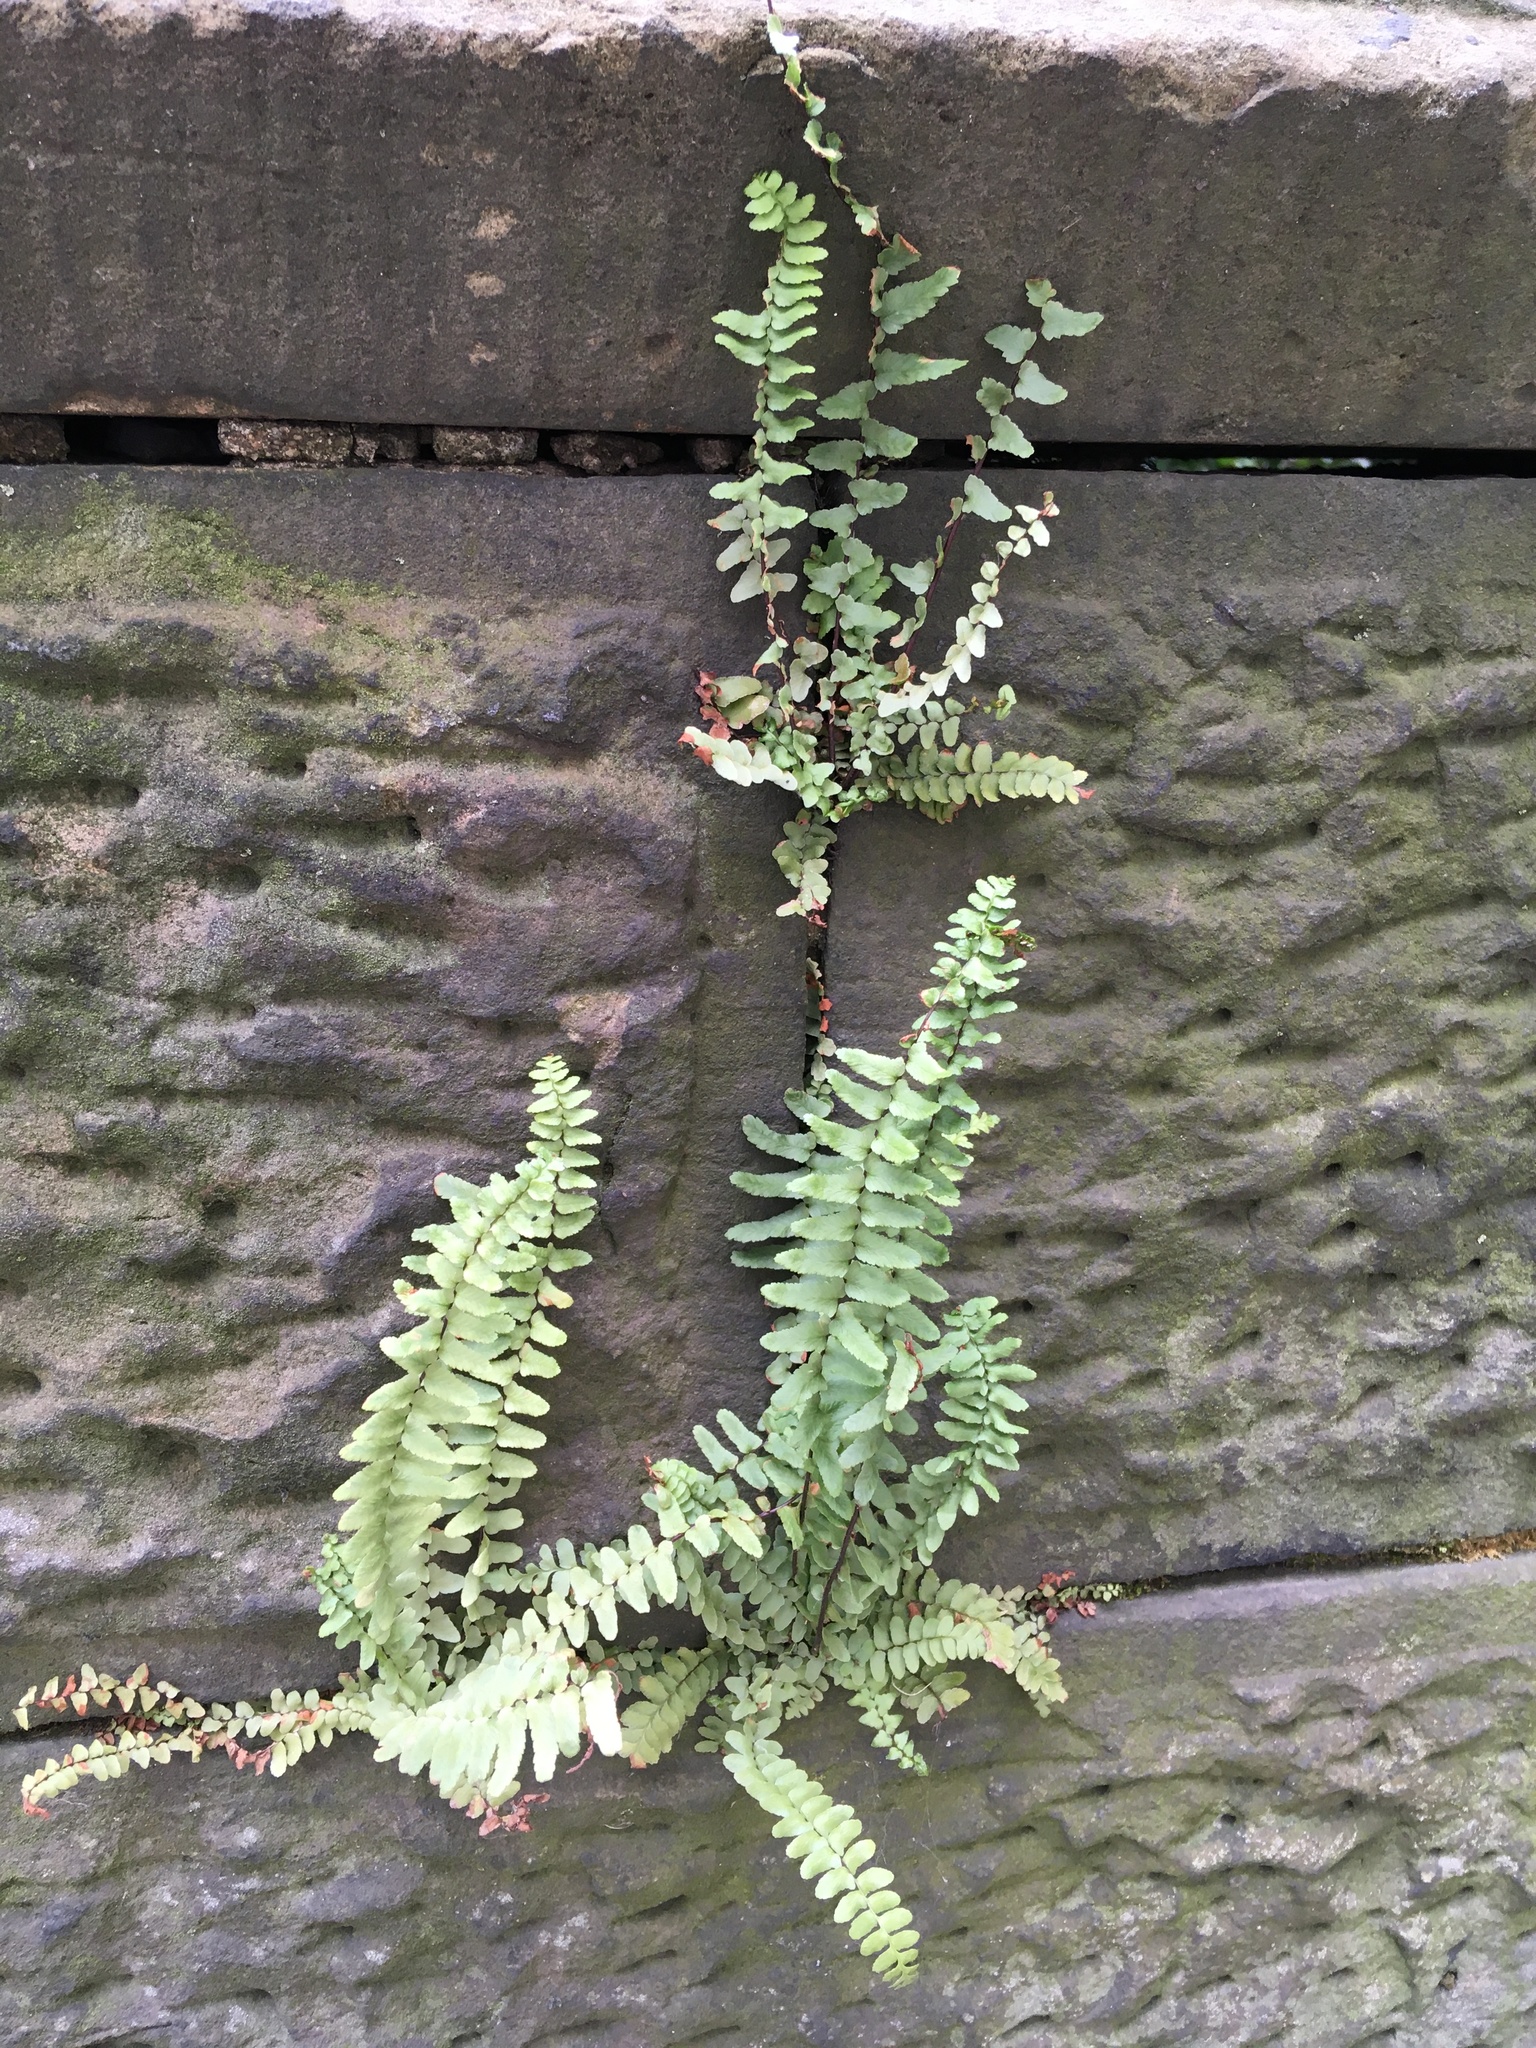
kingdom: Plantae
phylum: Tracheophyta
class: Polypodiopsida
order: Polypodiales
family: Aspleniaceae
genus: Asplenium
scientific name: Asplenium platyneuron
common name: Ebony spleenwort
